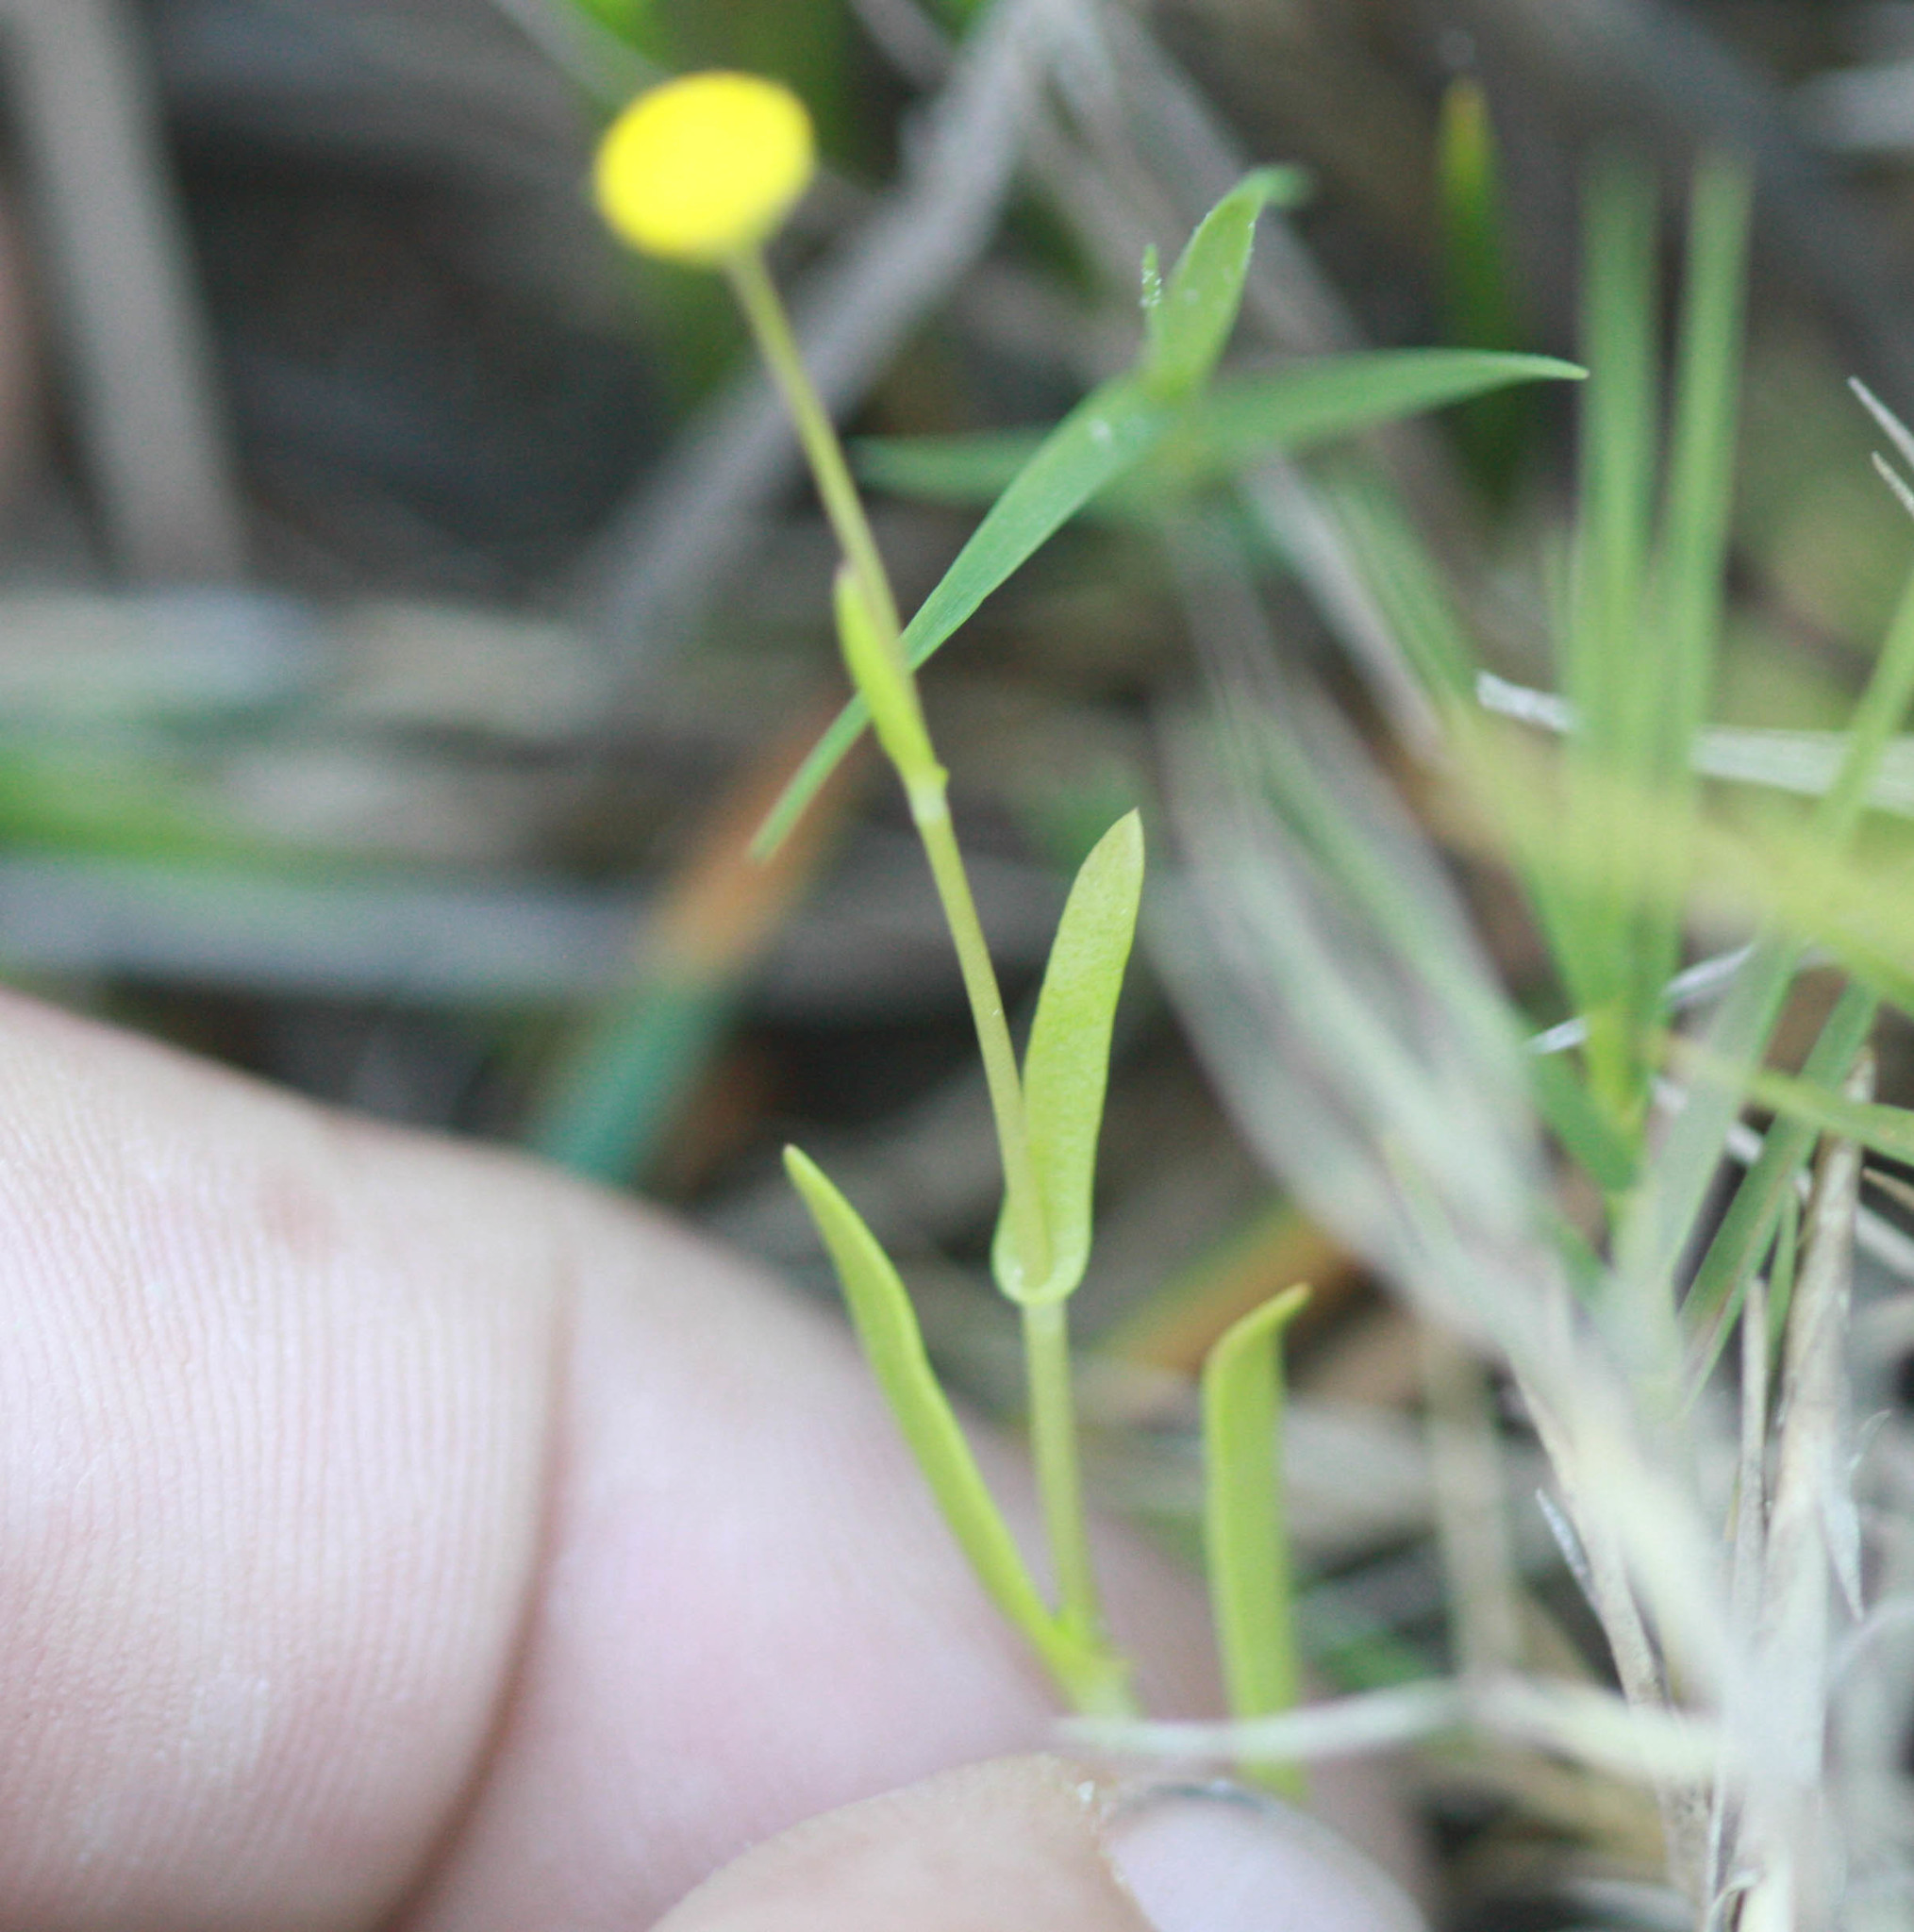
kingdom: Plantae
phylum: Tracheophyta
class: Magnoliopsida
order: Asterales
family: Asteraceae
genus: Cotula
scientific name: Cotula coronopifolia
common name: Buttonweed
